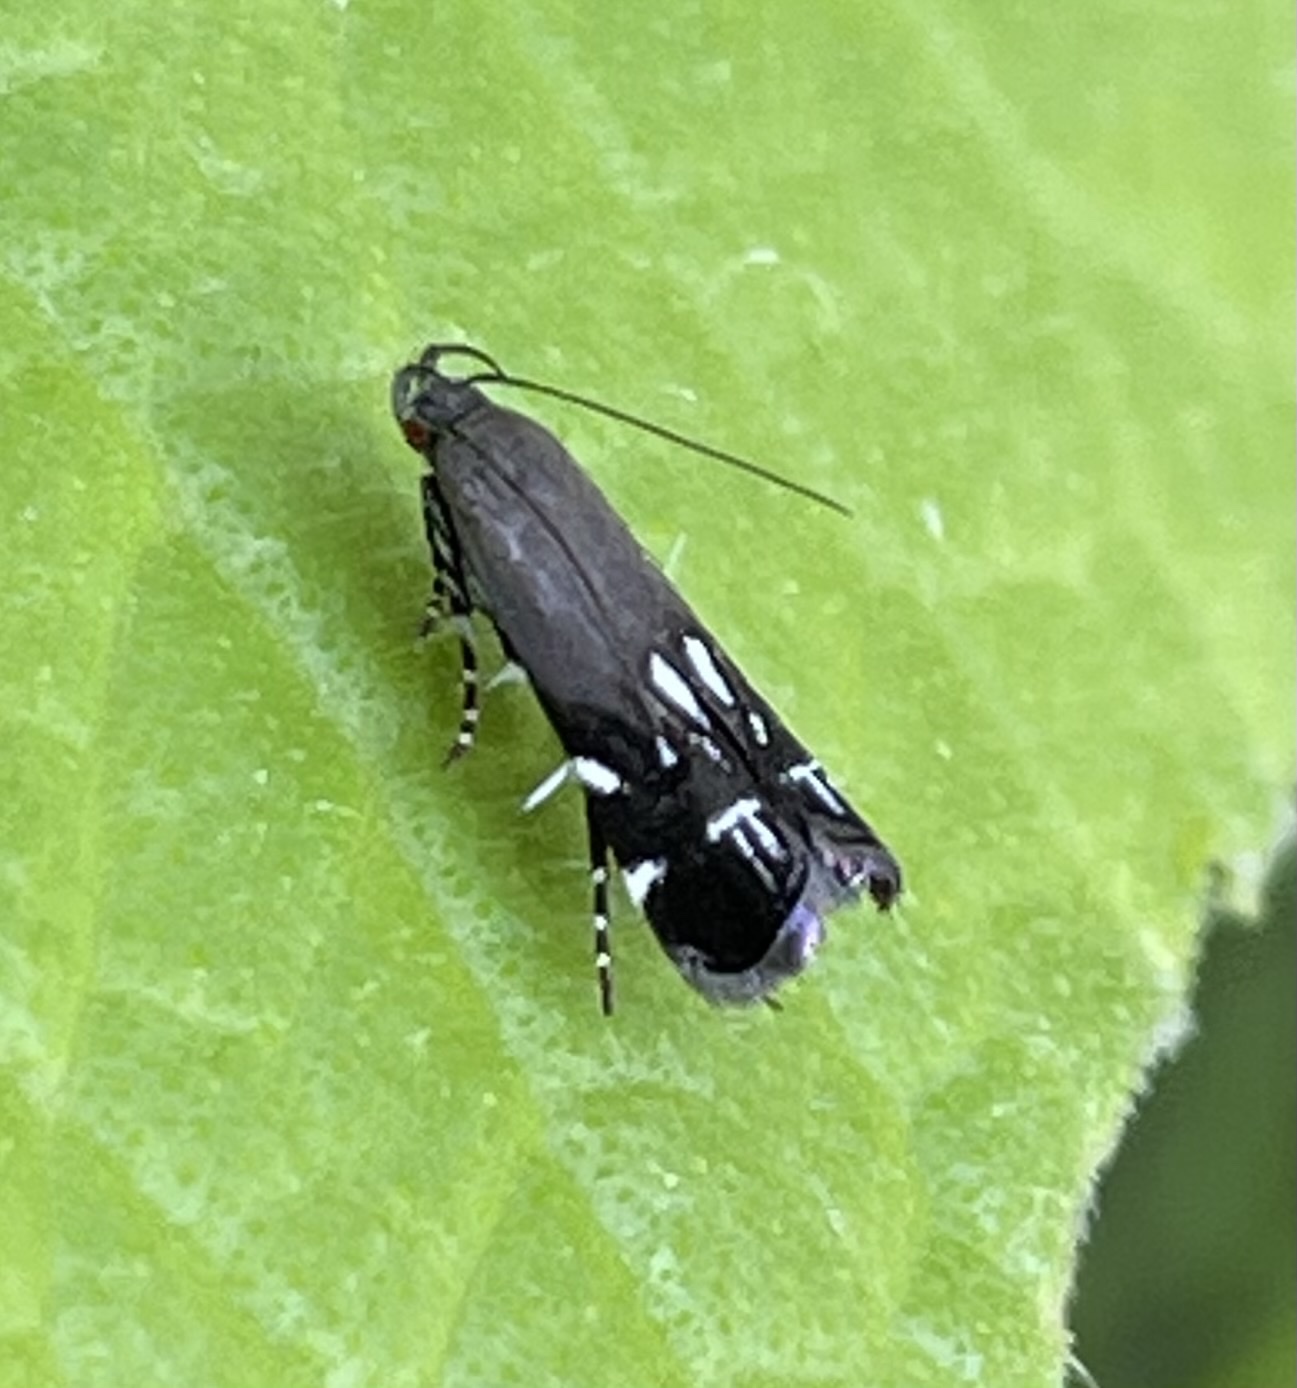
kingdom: Animalia
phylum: Arthropoda
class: Insecta
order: Lepidoptera
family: Gelechiidae
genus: Anacampsis
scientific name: Anacampsis levipedella
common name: Silver-dashed anacampsis
